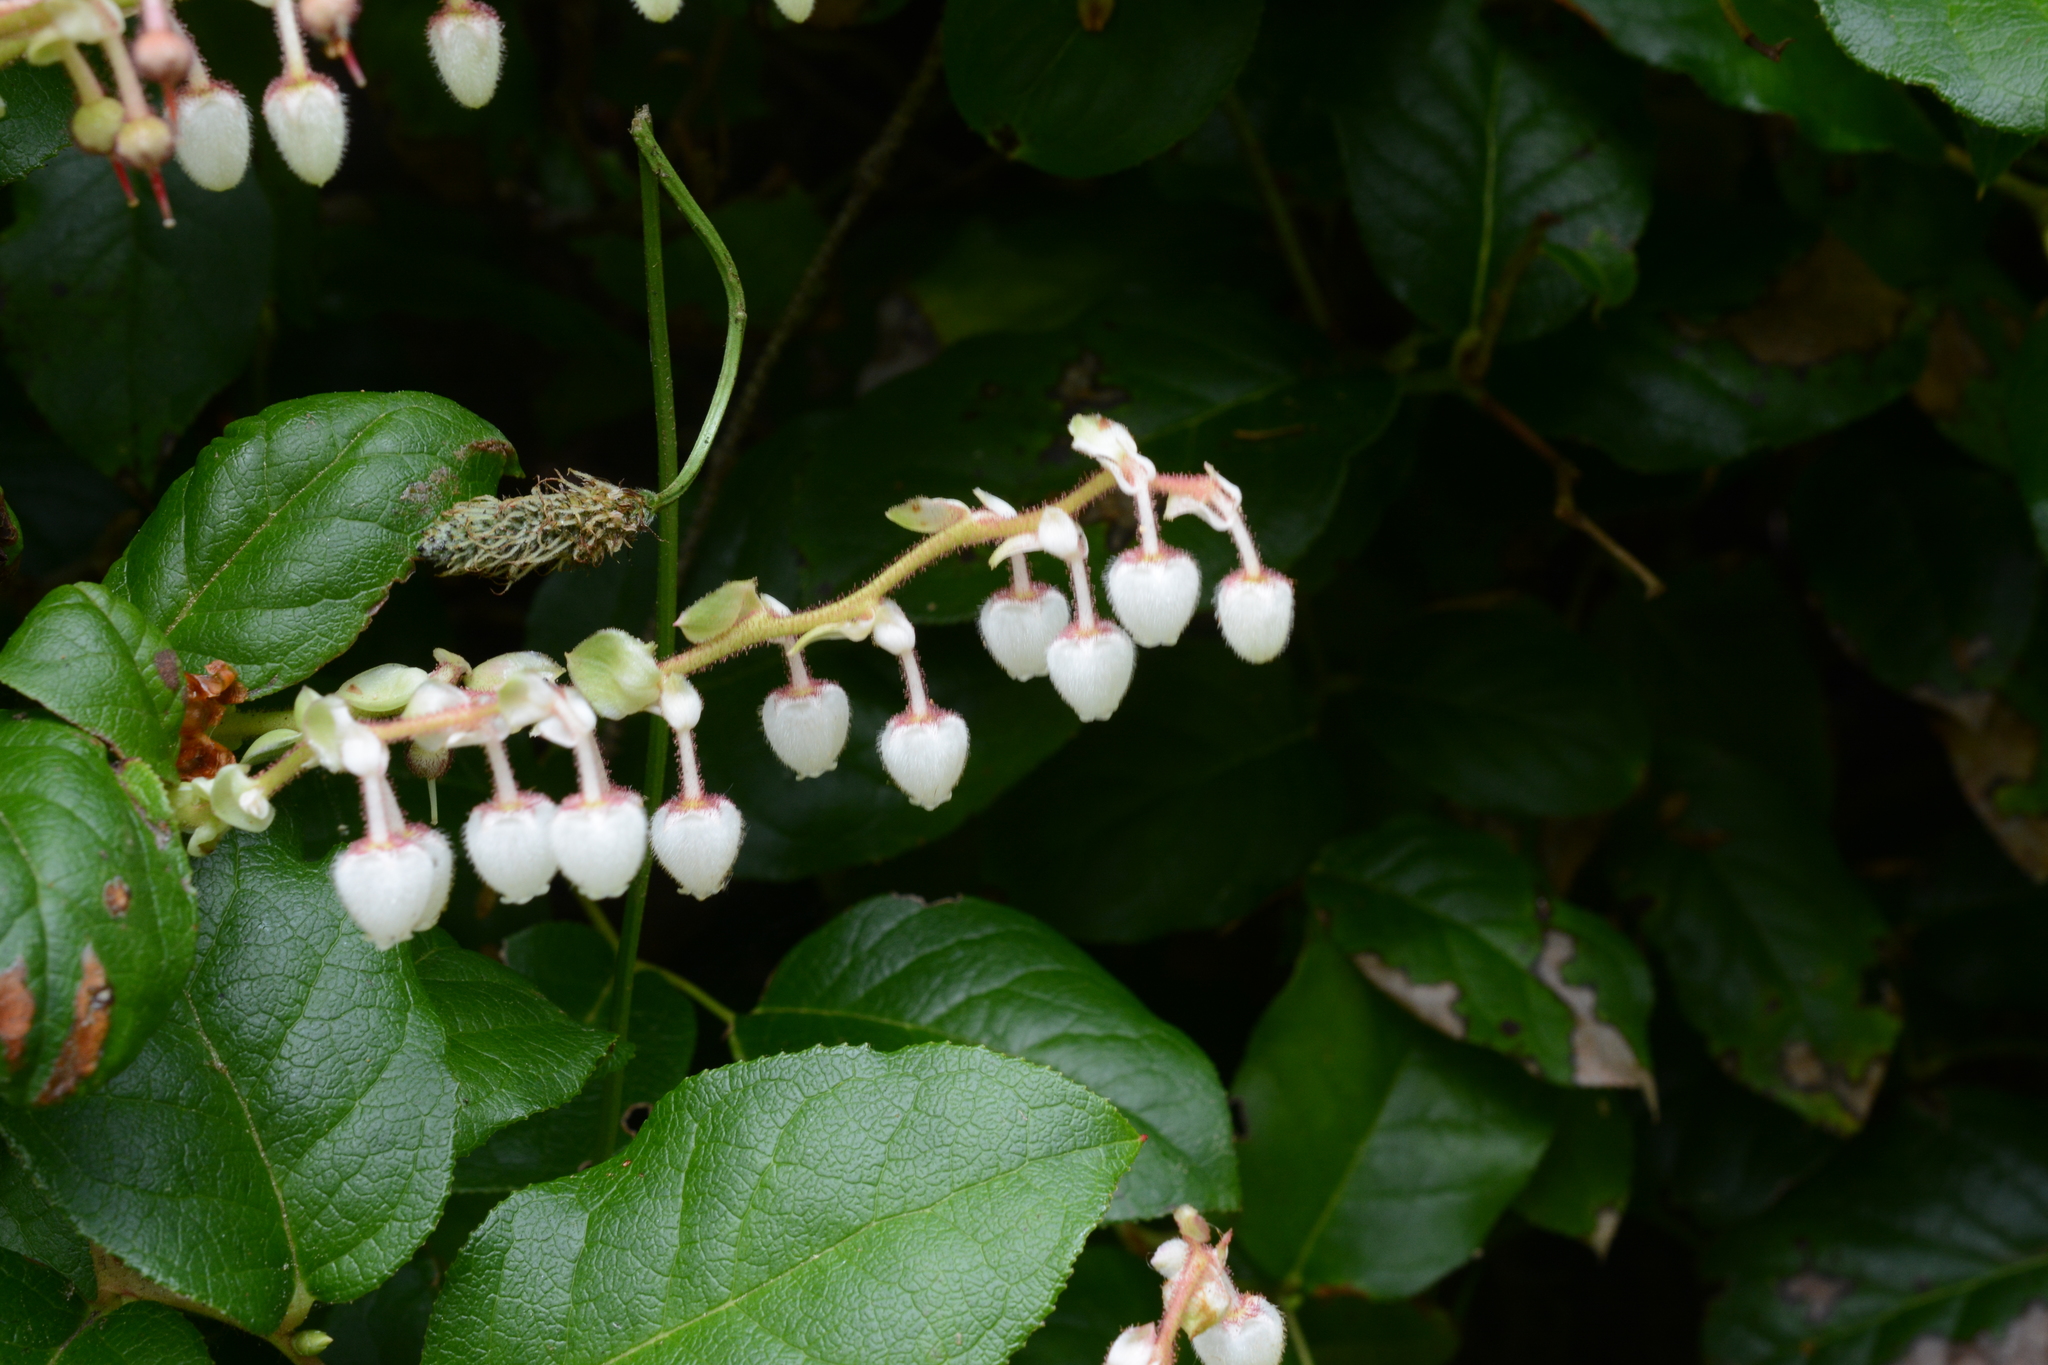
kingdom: Plantae
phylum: Tracheophyta
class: Magnoliopsida
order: Ericales
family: Ericaceae
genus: Gaultheria
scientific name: Gaultheria shallon
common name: Shallon
